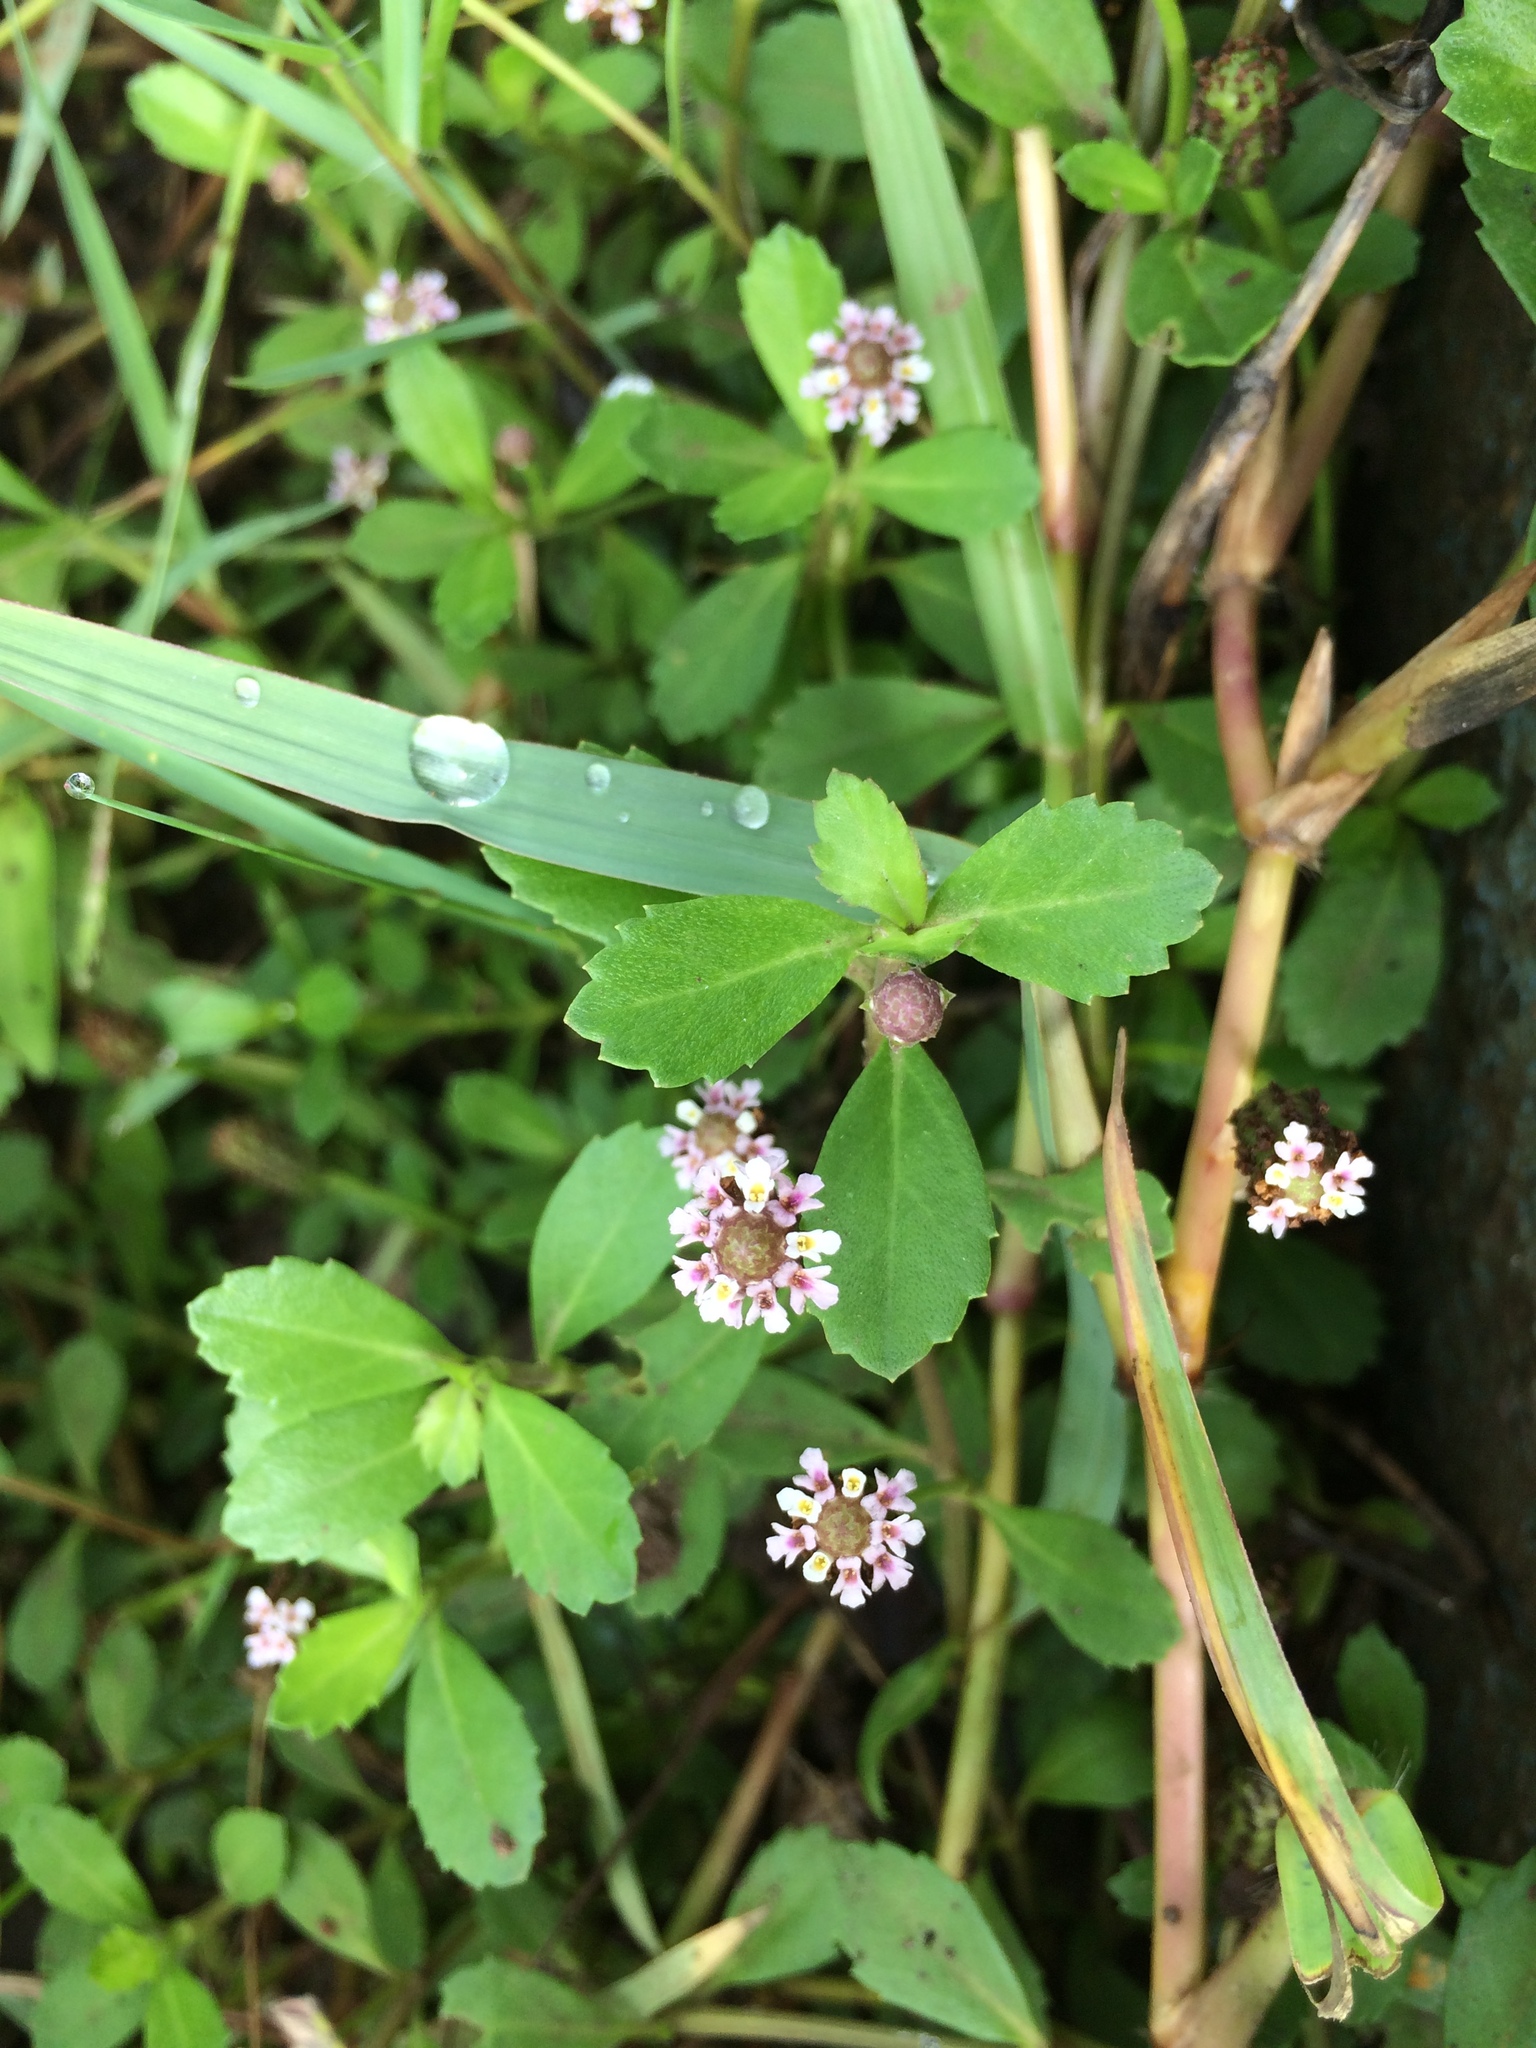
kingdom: Plantae
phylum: Tracheophyta
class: Magnoliopsida
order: Lamiales
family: Verbenaceae
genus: Phyla
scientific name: Phyla nodiflora
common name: Frogfruit
